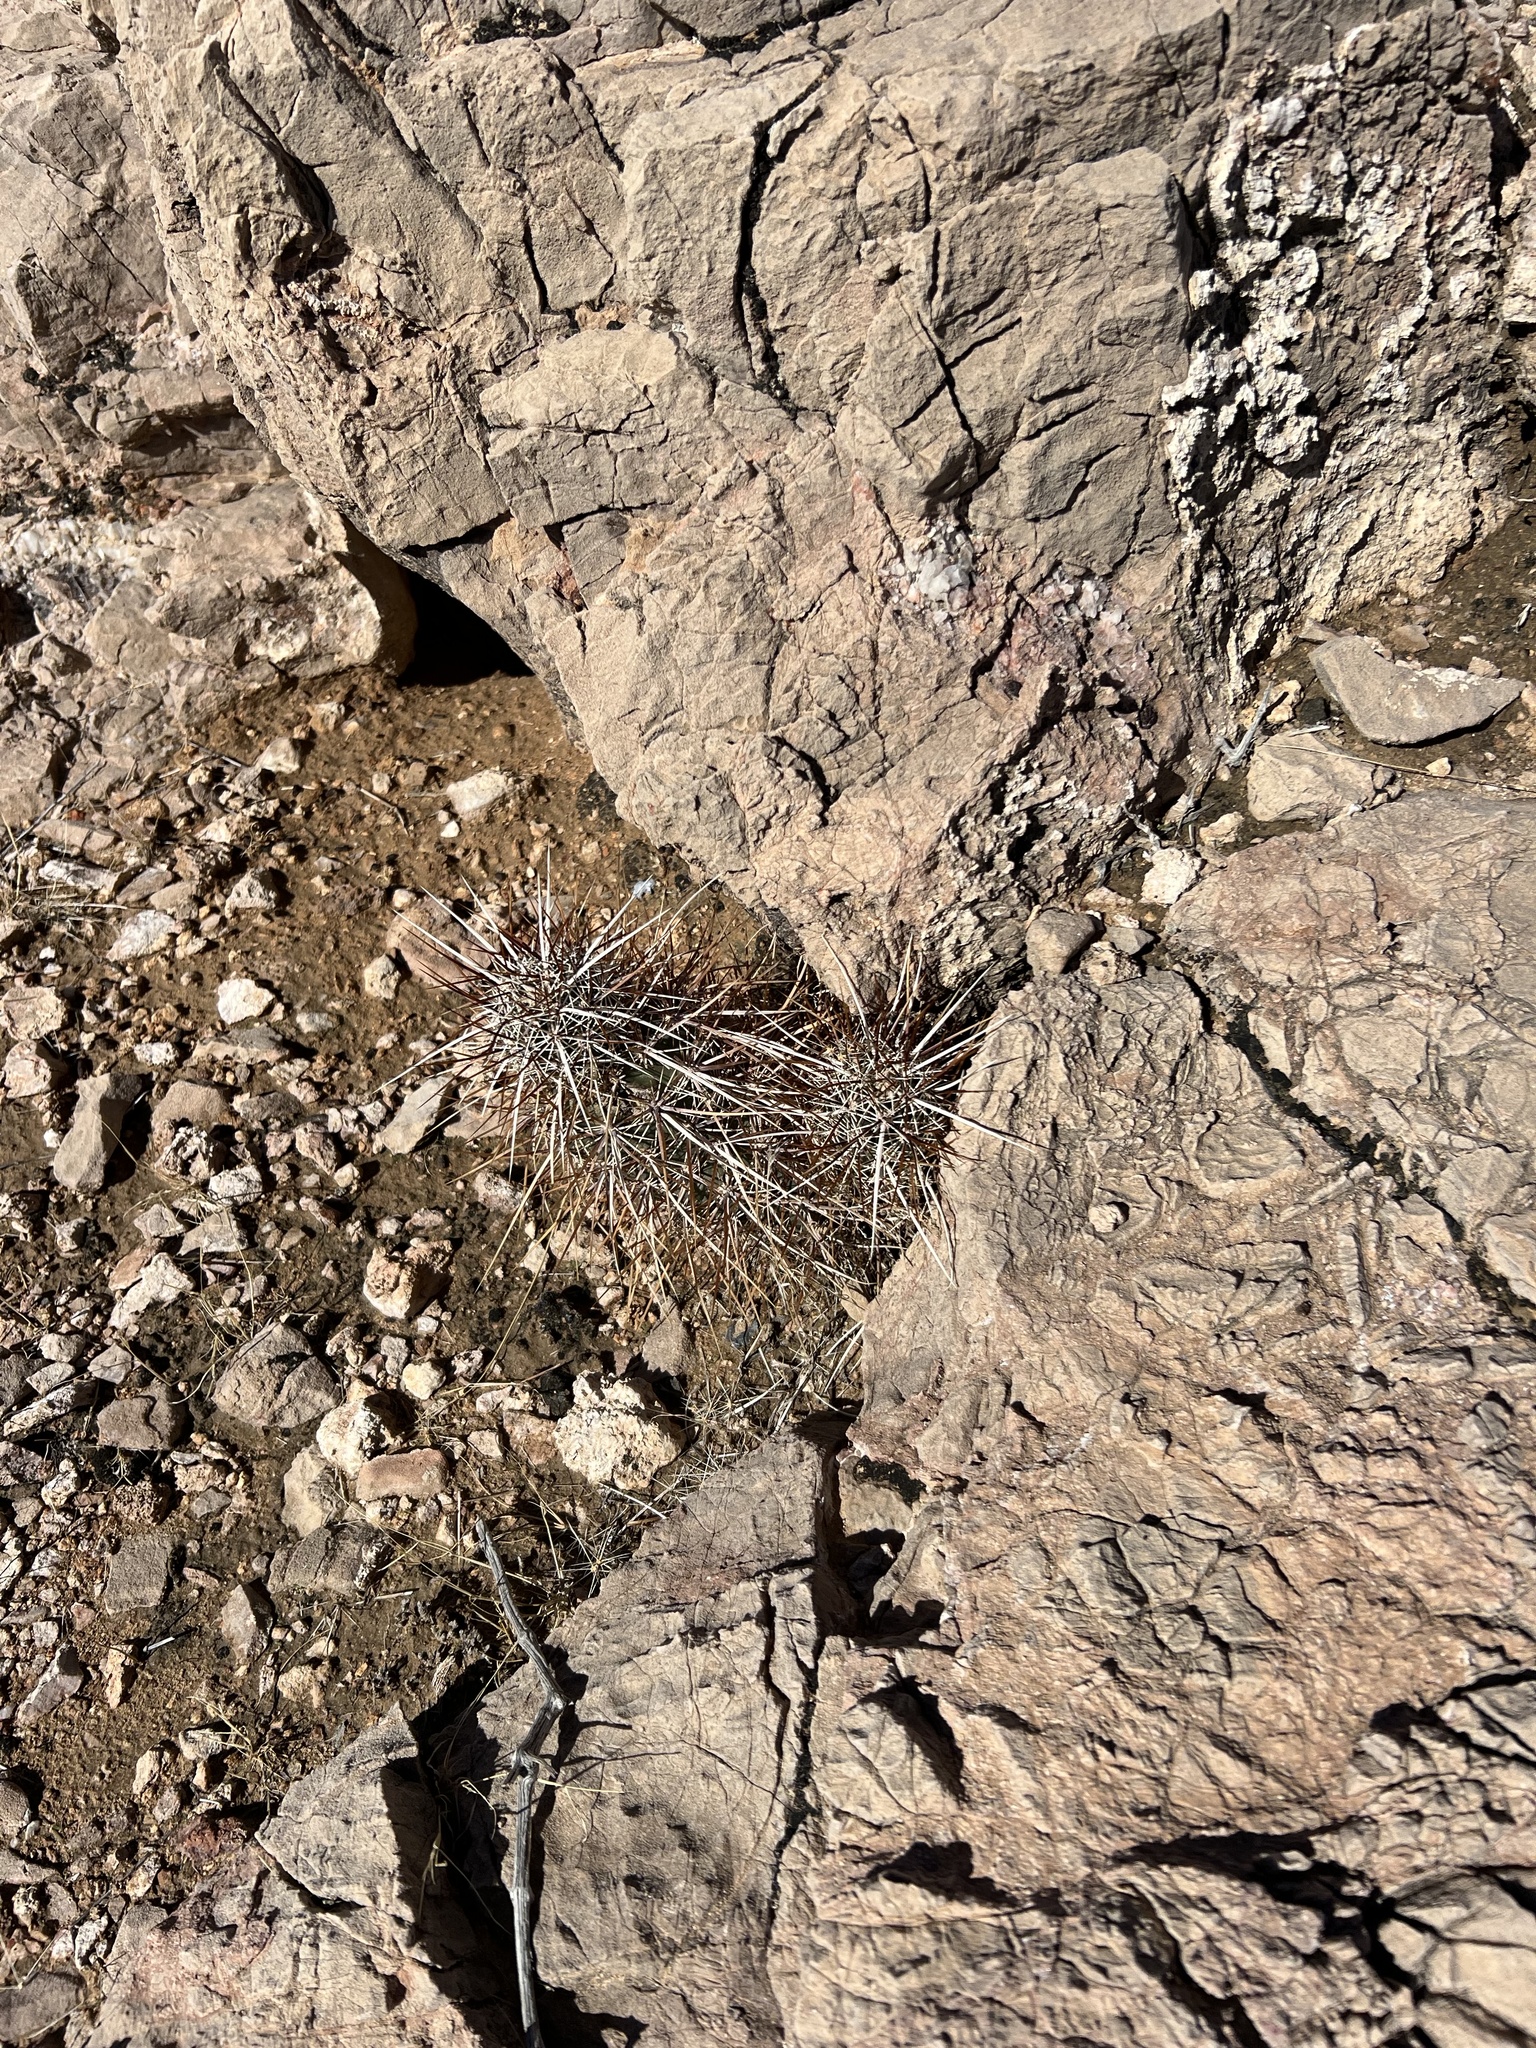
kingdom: Plantae
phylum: Tracheophyta
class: Magnoliopsida
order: Caryophyllales
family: Cactaceae
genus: Echinocereus
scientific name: Echinocereus engelmannii
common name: Engelmann's hedgehog cactus
